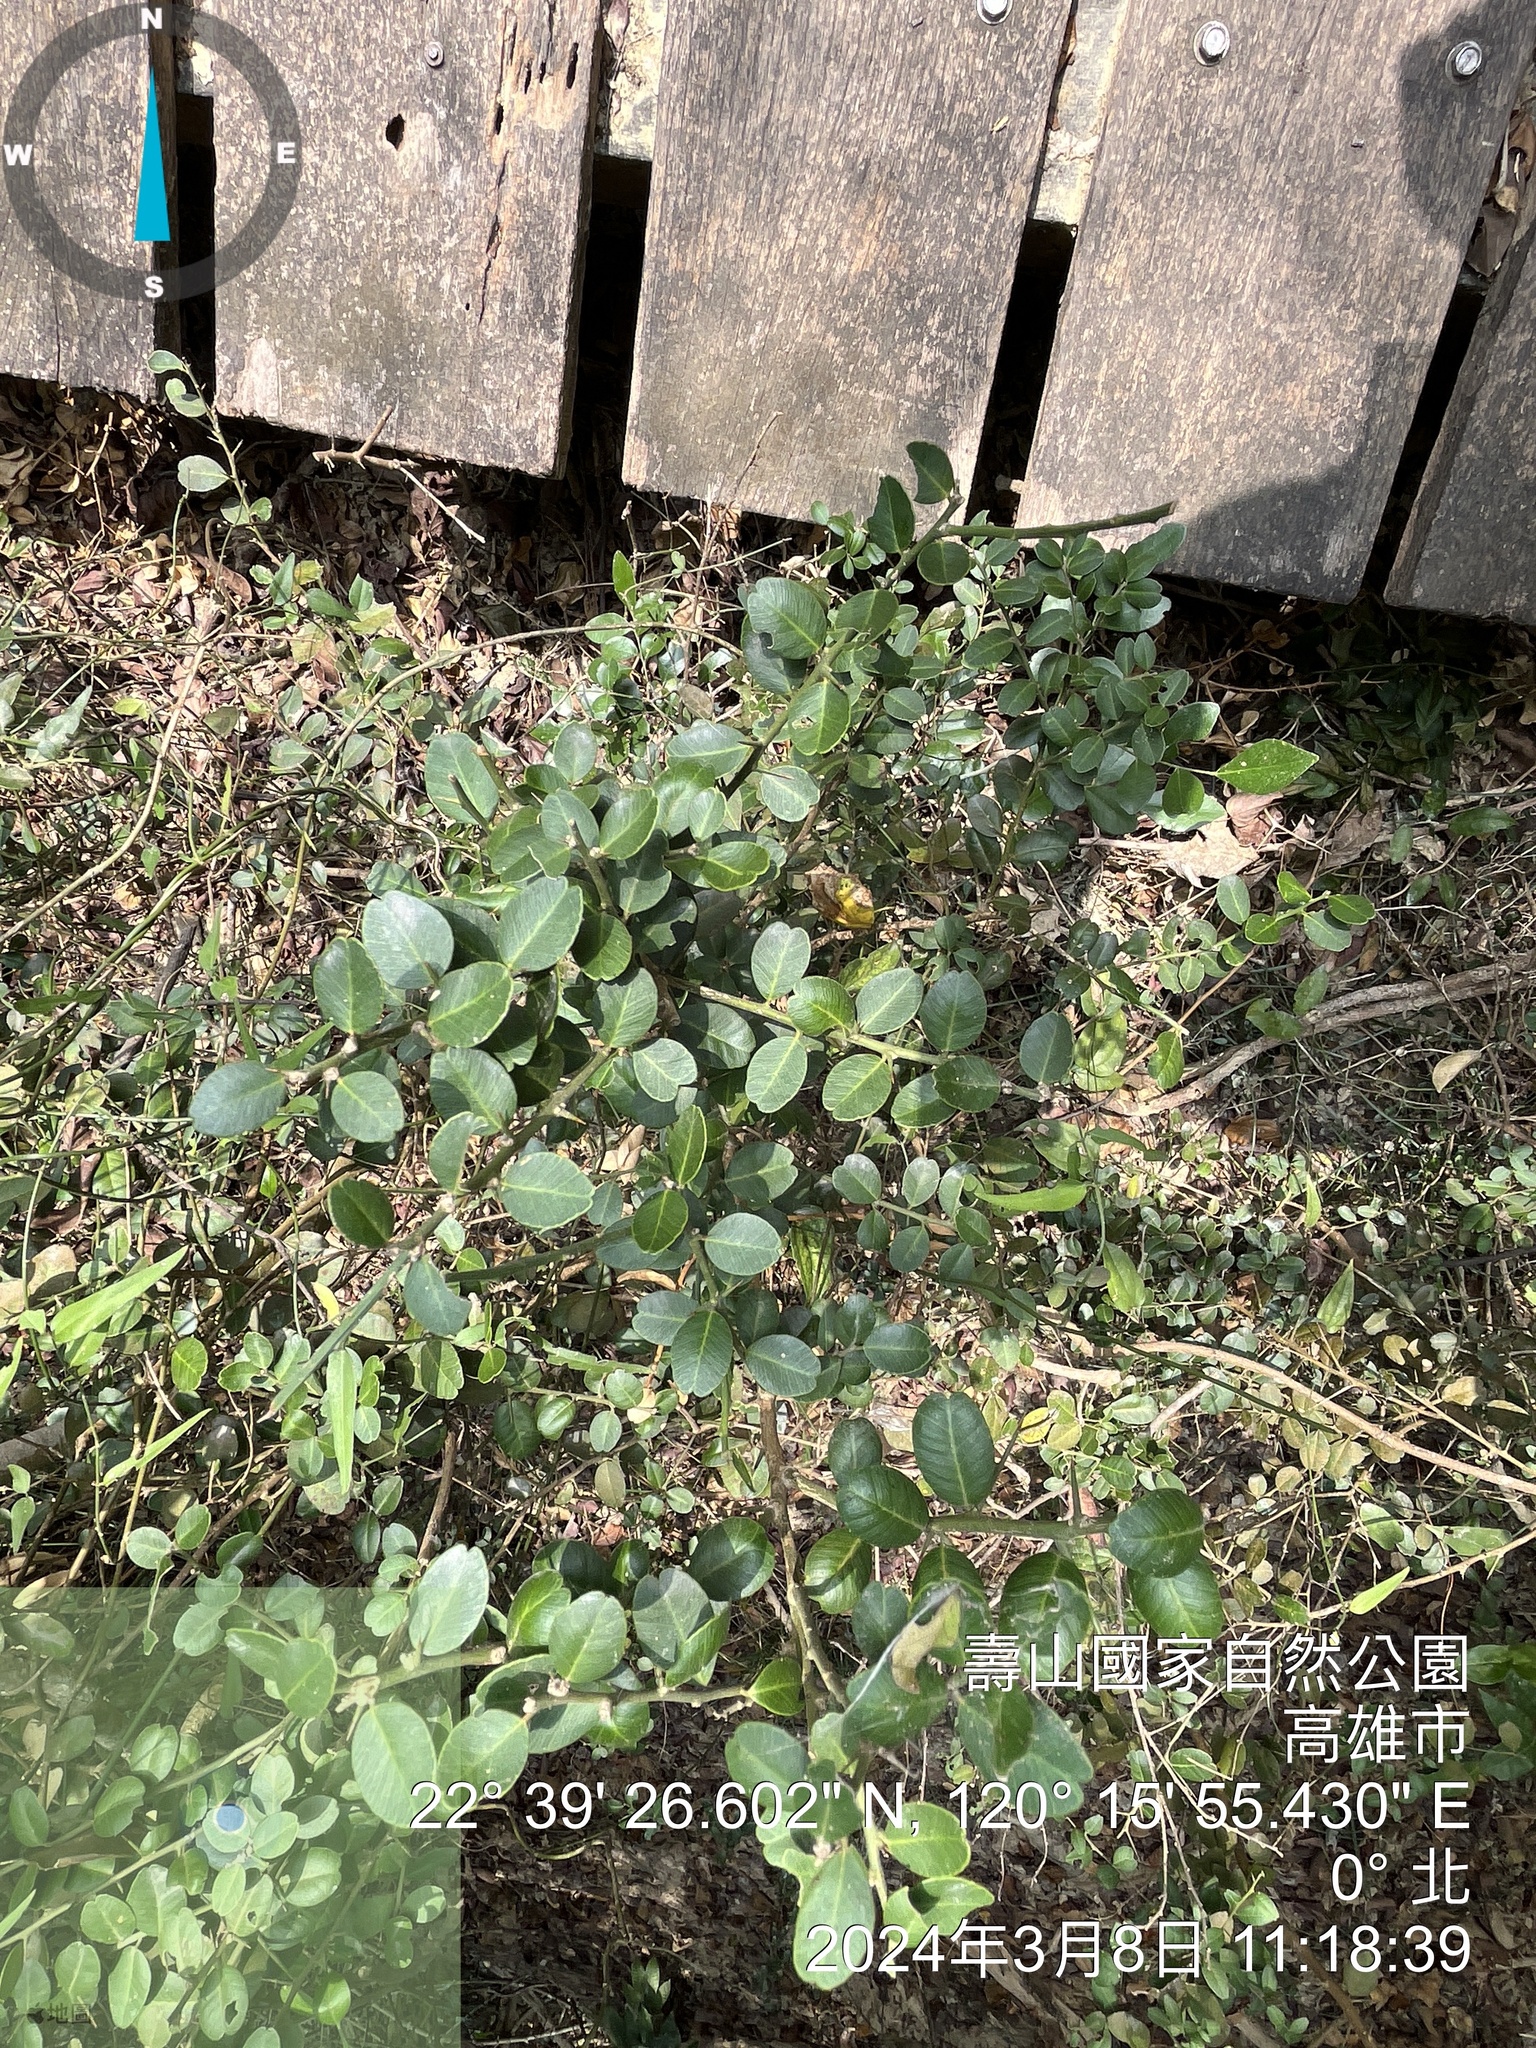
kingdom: Plantae
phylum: Tracheophyta
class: Magnoliopsida
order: Sapindales
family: Rutaceae
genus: Atalantia
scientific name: Atalantia buxifolia
